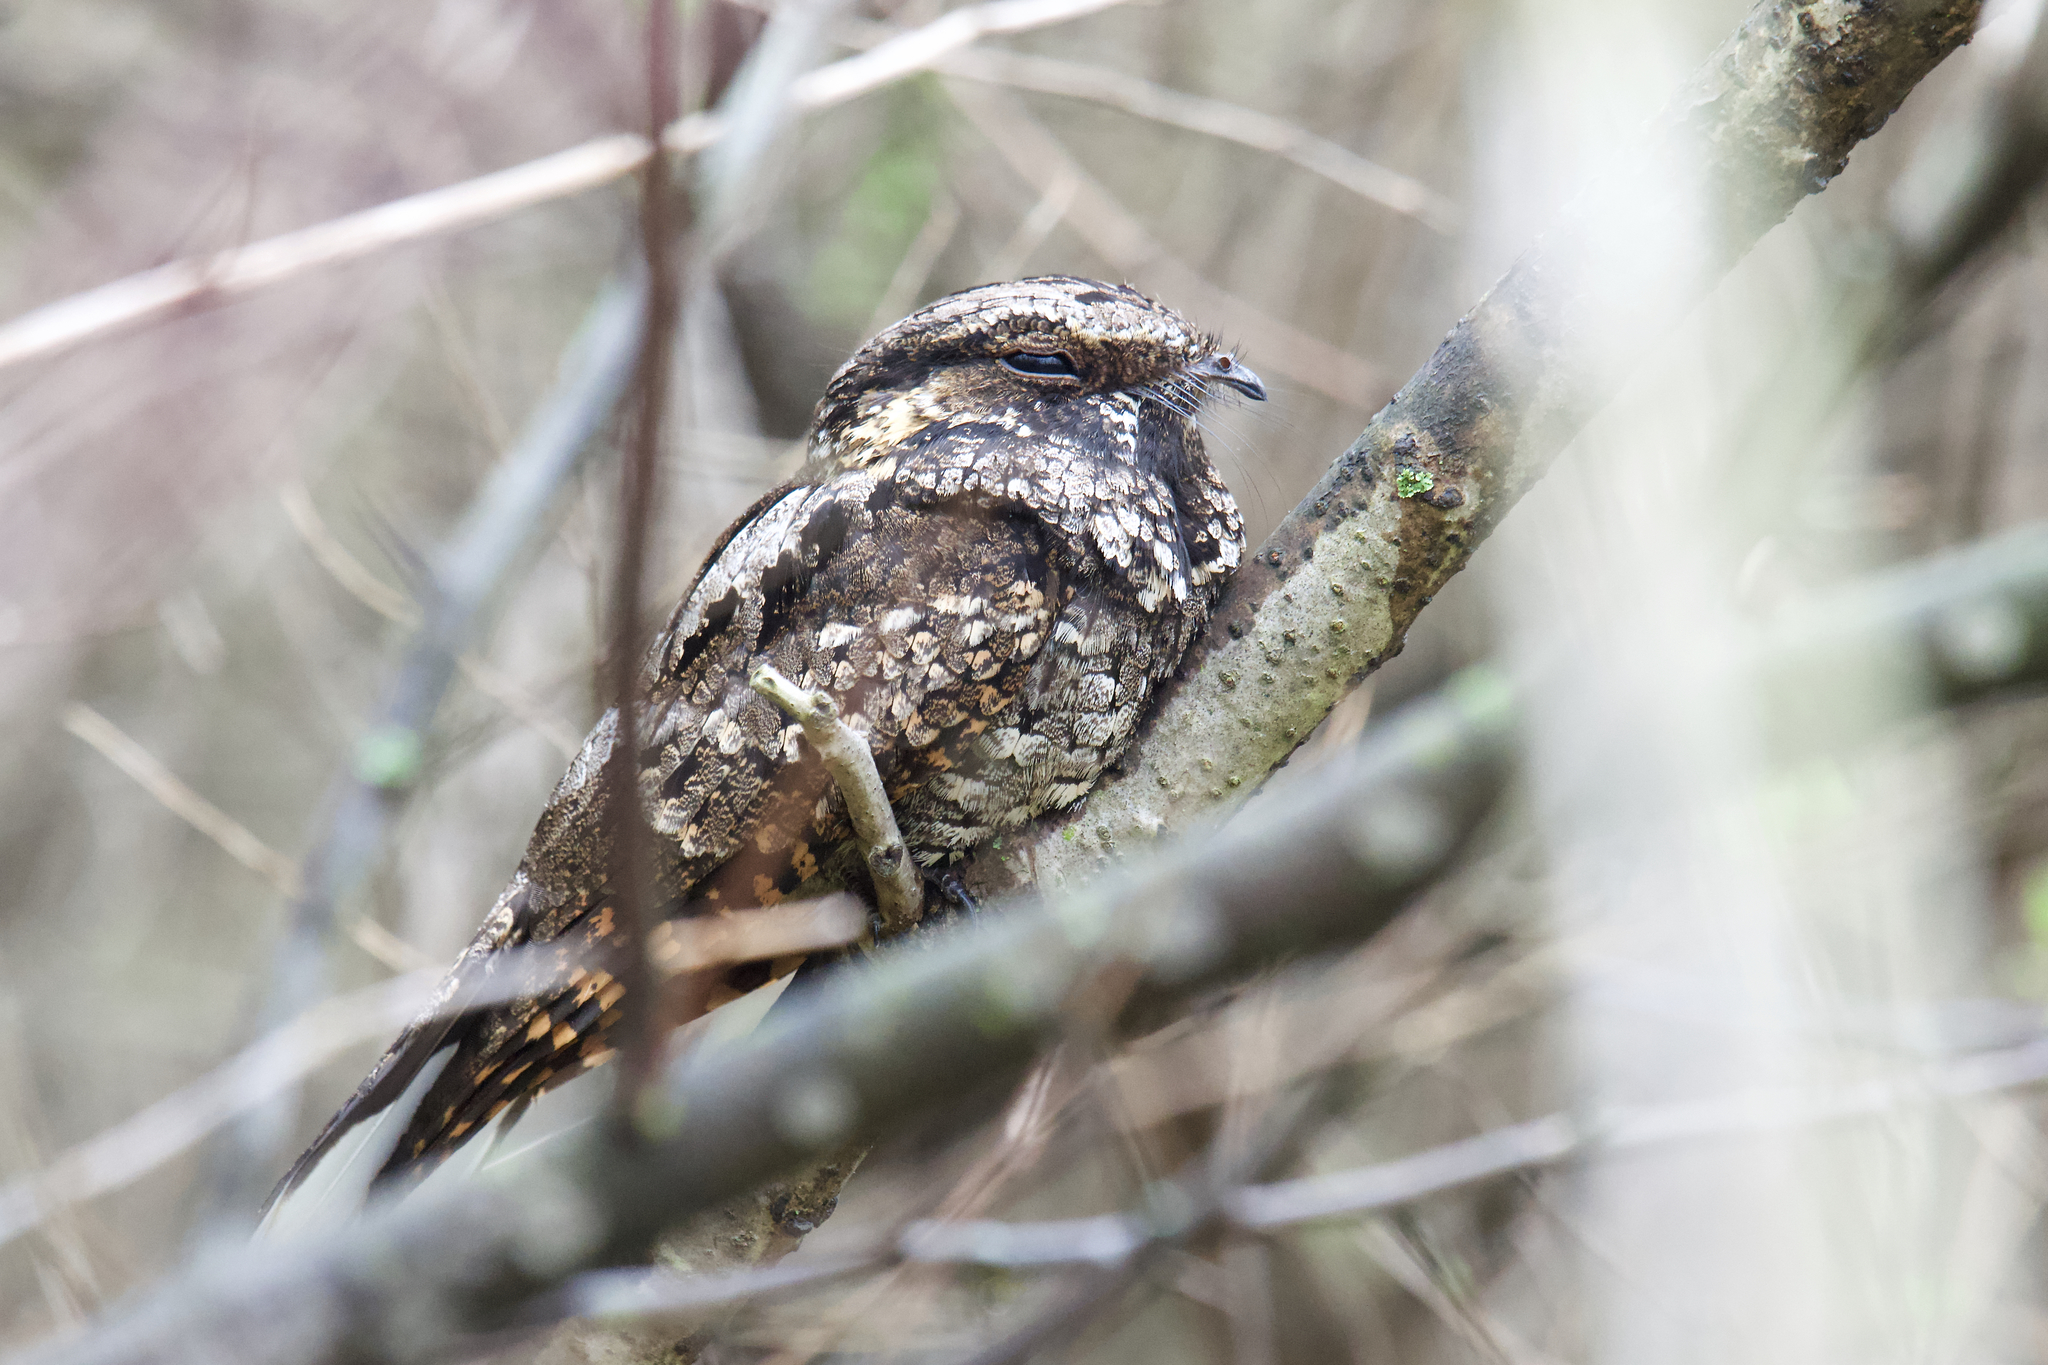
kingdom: Animalia
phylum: Chordata
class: Aves
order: Caprimulgiformes
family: Caprimulgidae
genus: Antrostomus
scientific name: Antrostomus vociferus
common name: Eastern whip-poor-will
